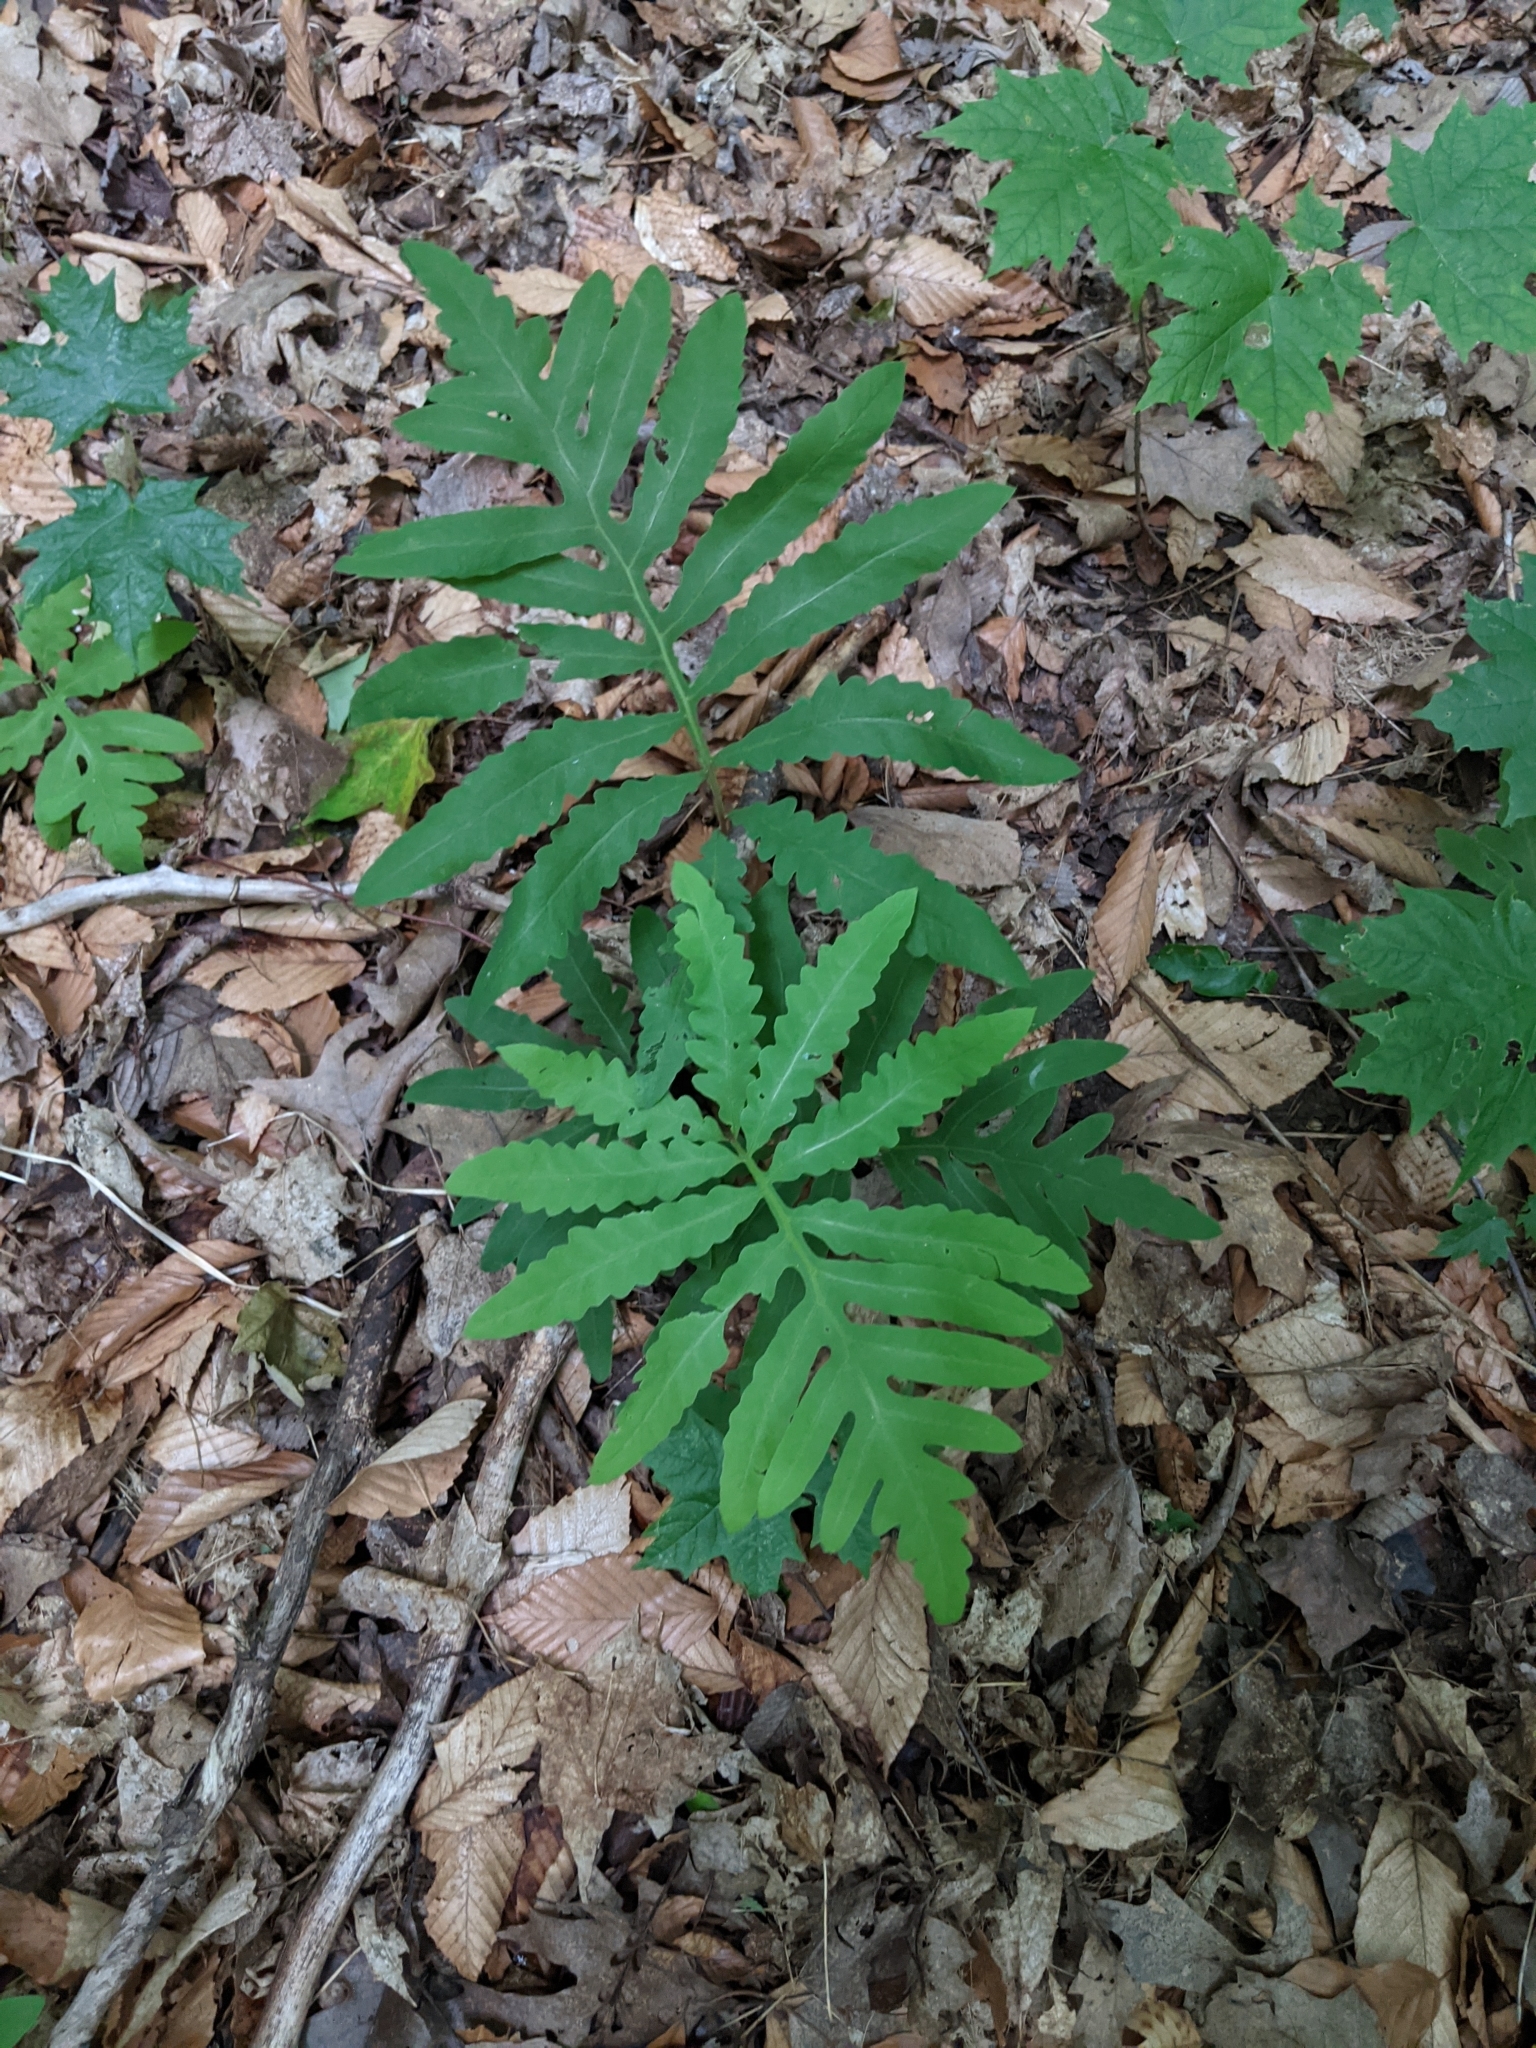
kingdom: Plantae
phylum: Tracheophyta
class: Polypodiopsida
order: Polypodiales
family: Onocleaceae
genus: Onoclea
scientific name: Onoclea sensibilis
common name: Sensitive fern
